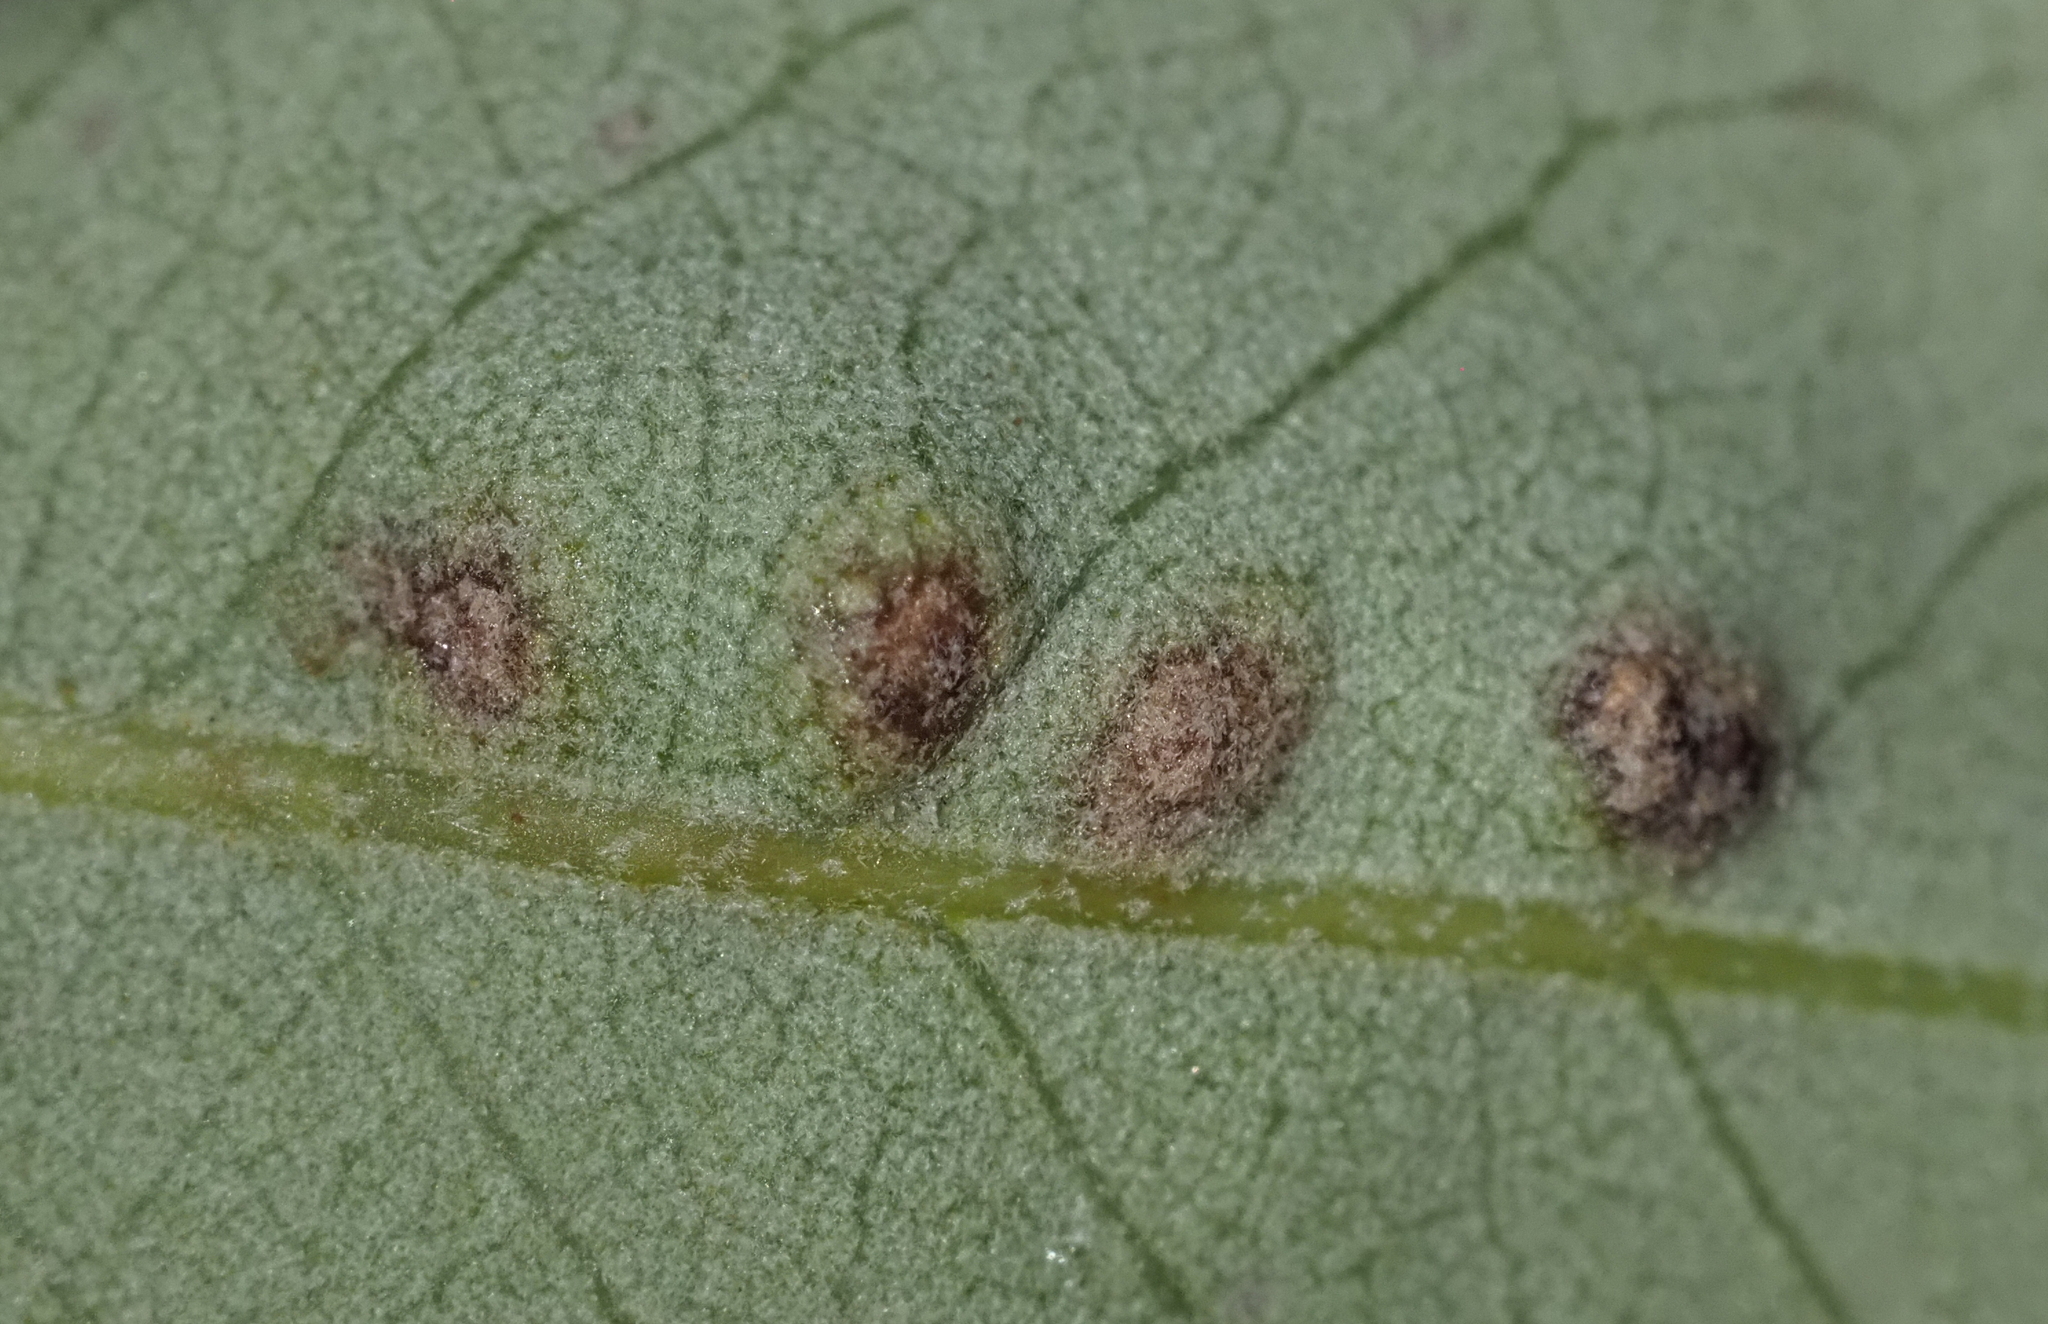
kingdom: Animalia
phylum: Arthropoda
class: Insecta
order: Hymenoptera
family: Cynipidae
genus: Neuroterus
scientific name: Neuroterus bussae
